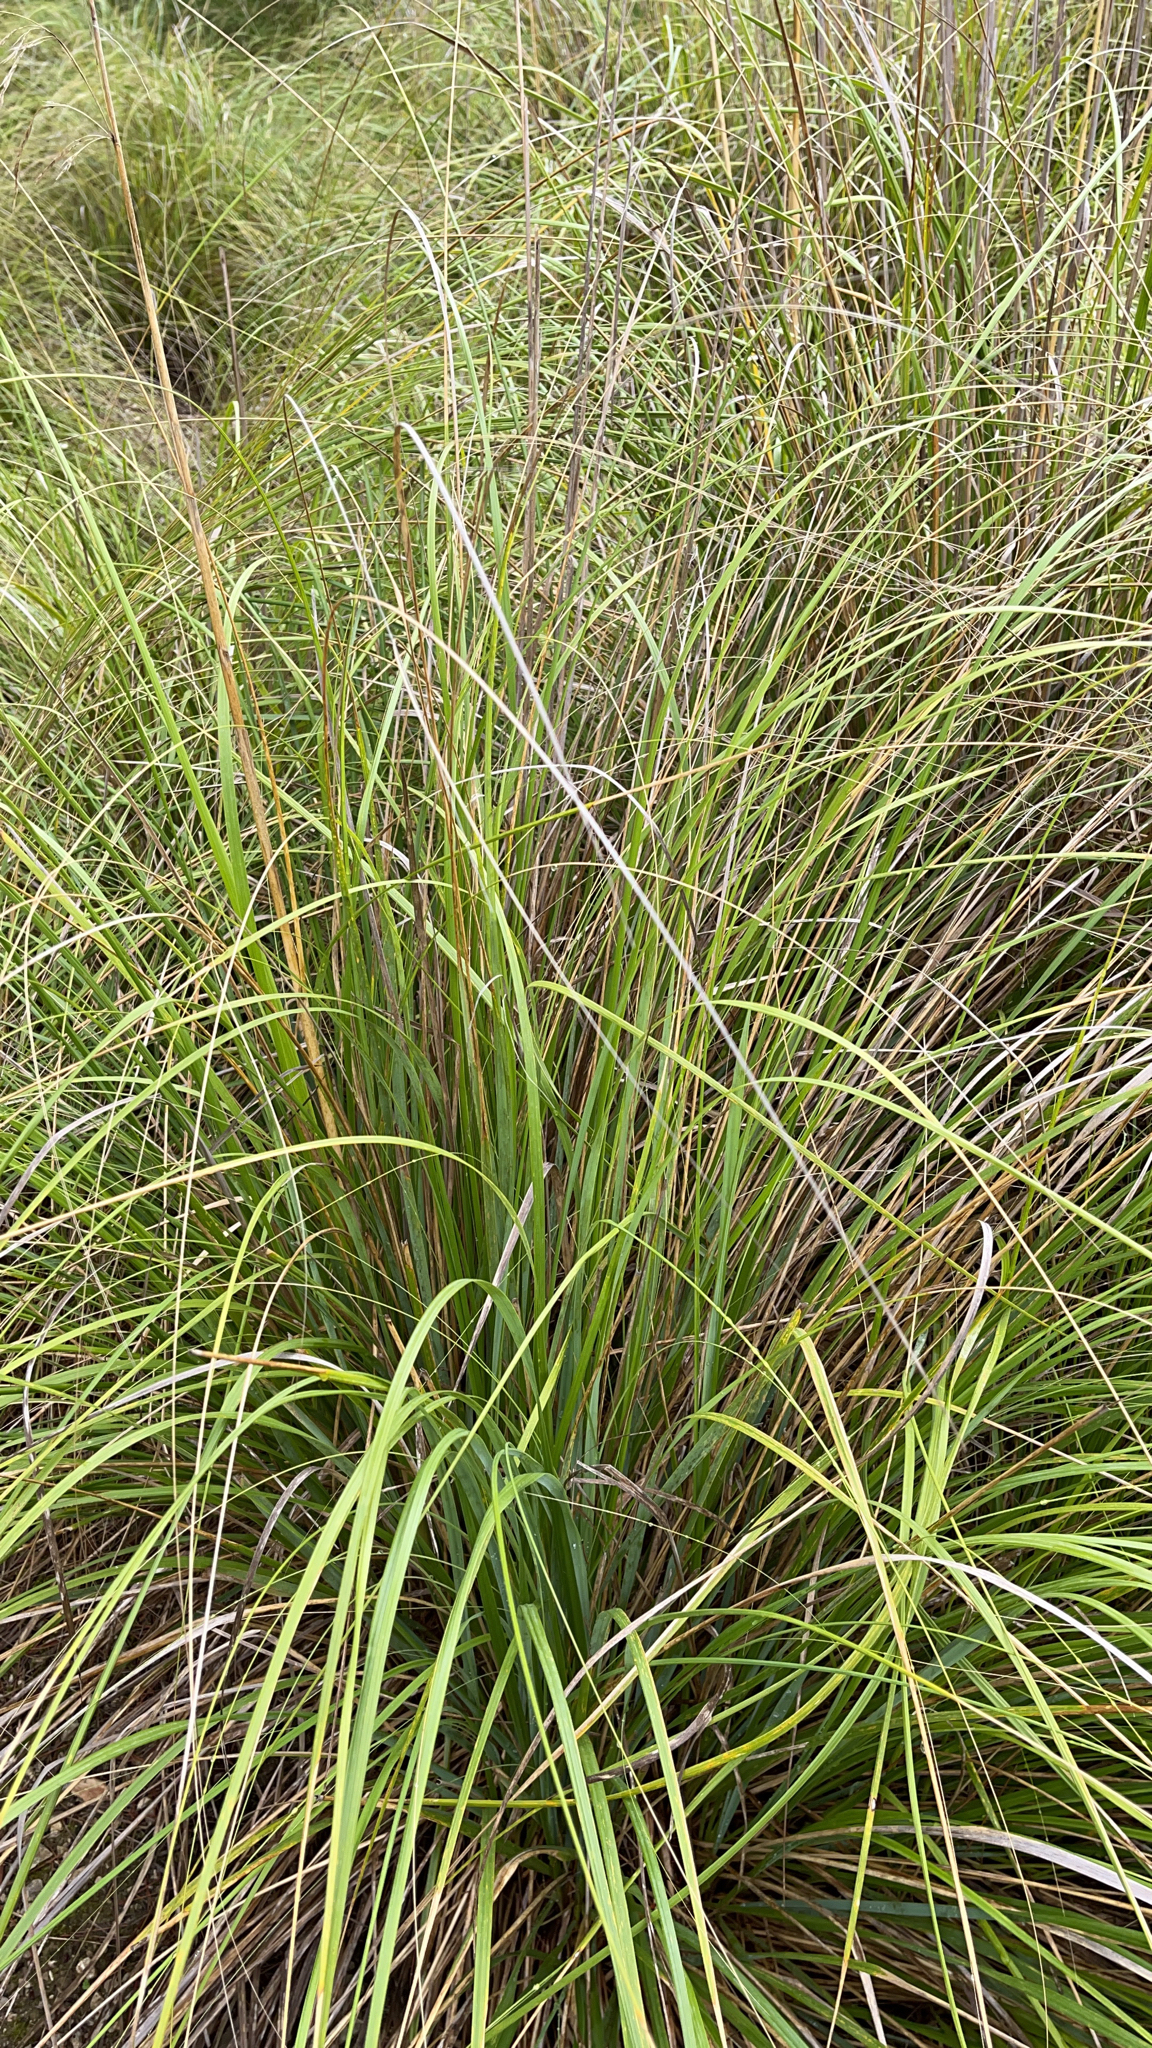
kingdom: Plantae
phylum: Tracheophyta
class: Liliopsida
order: Poales
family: Poaceae
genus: Ampelodesmos
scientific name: Ampelodesmos mauritanicus
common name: Mauritanian grass
